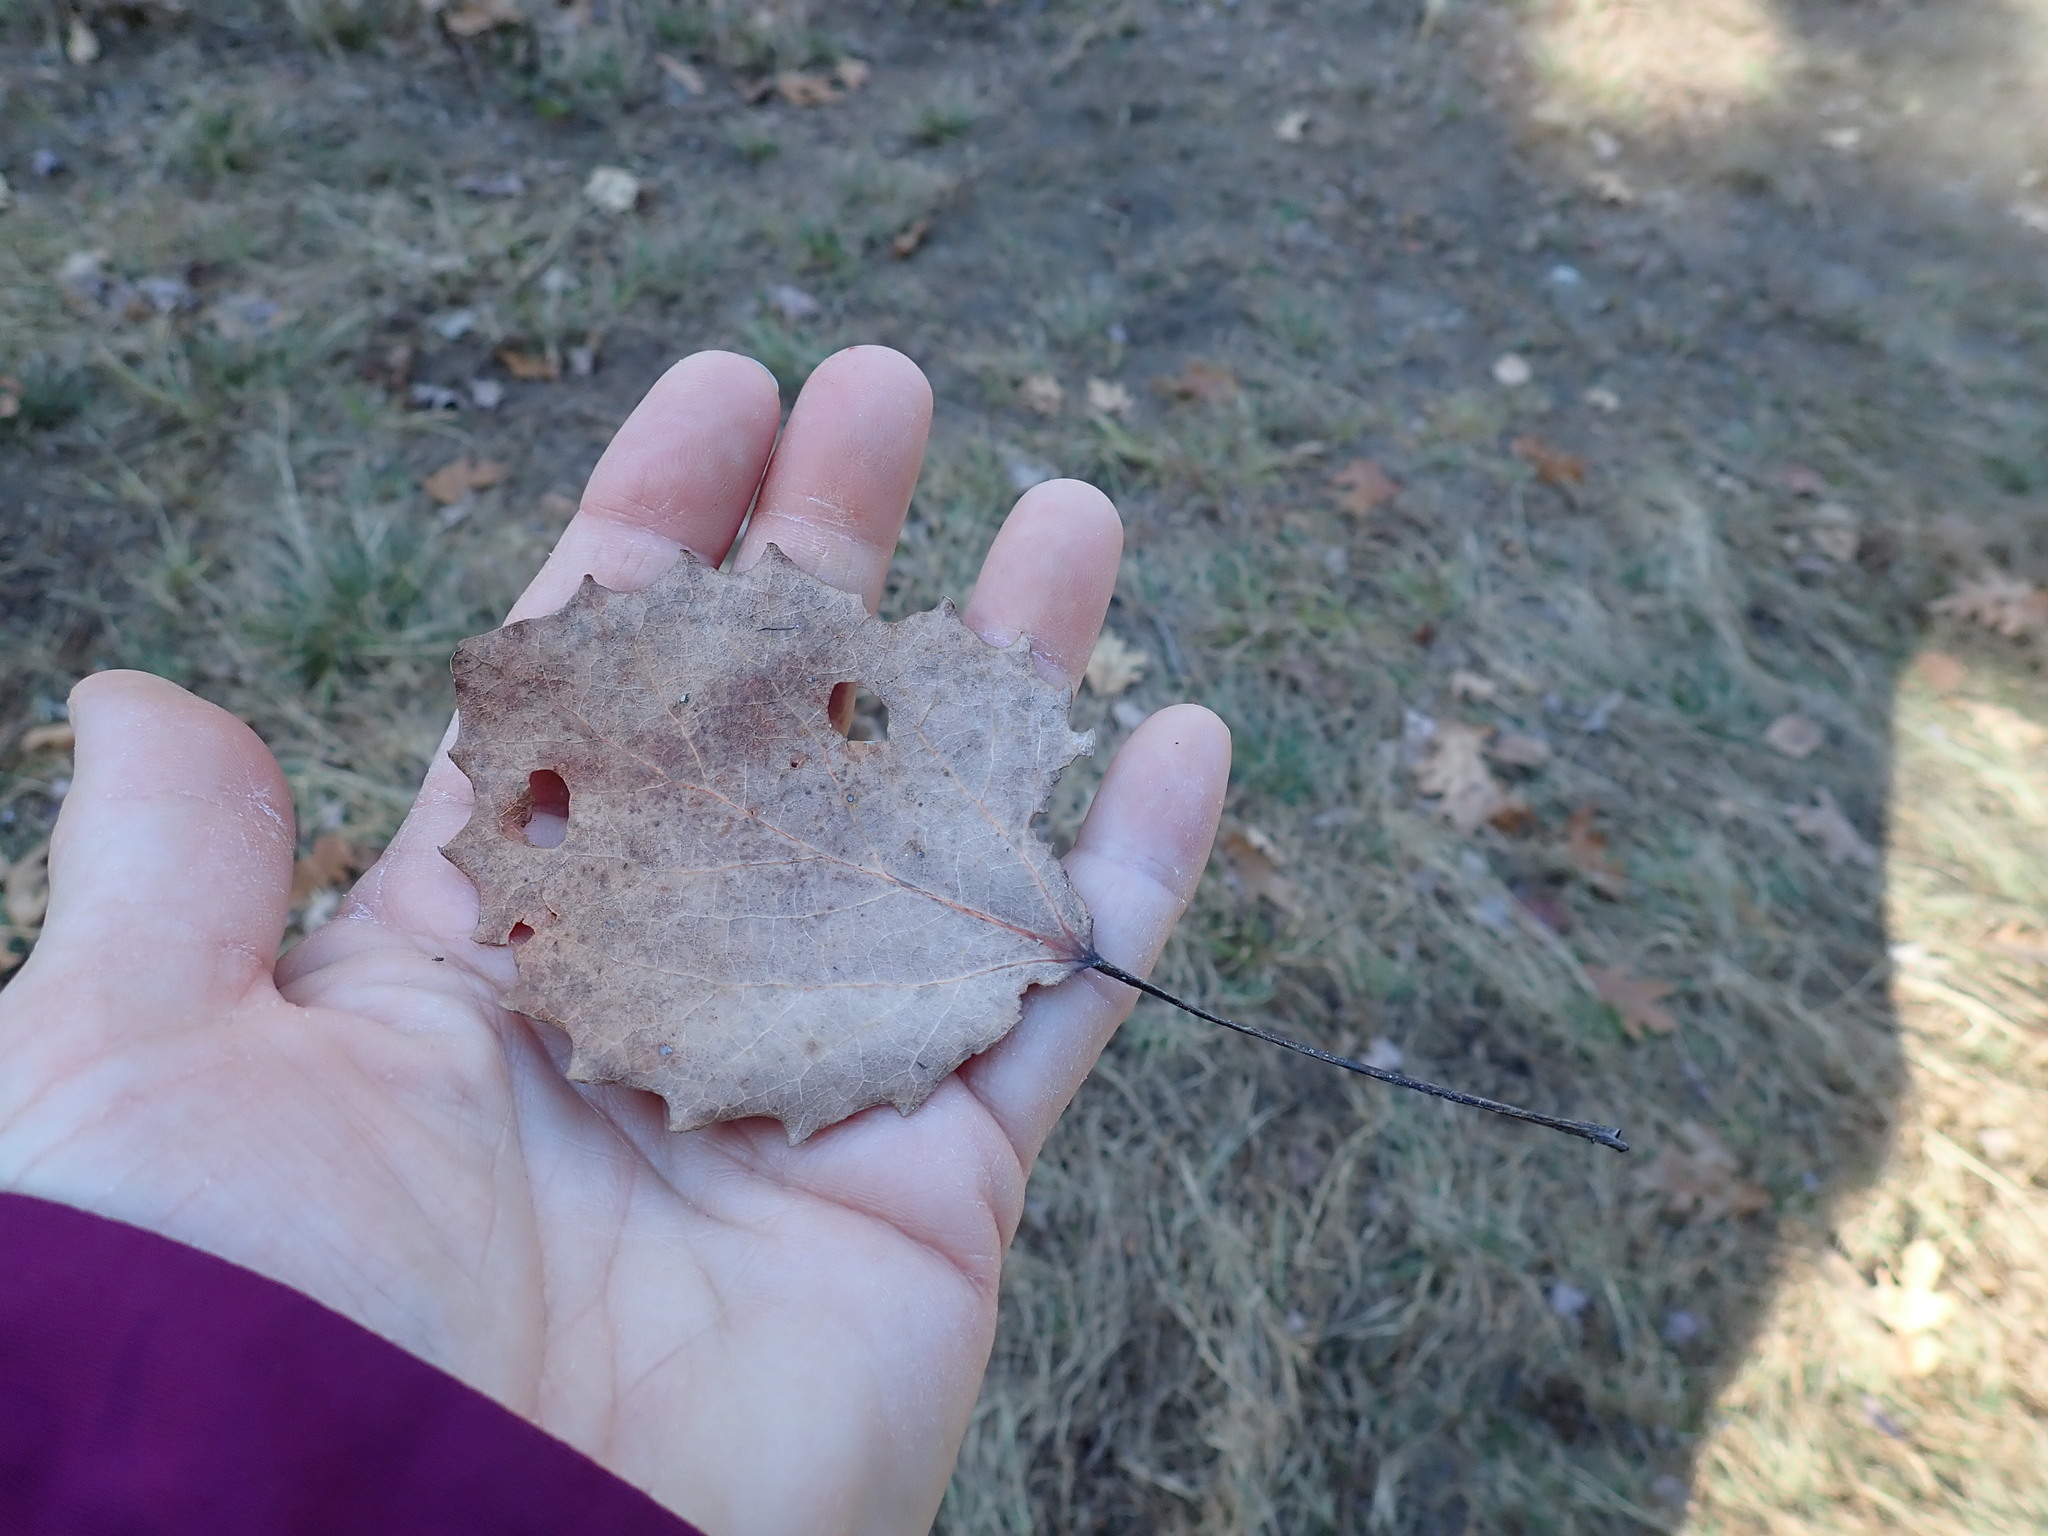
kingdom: Plantae
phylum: Tracheophyta
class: Magnoliopsida
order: Malpighiales
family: Salicaceae
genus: Populus
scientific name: Populus grandidentata
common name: Bigtooth aspen
